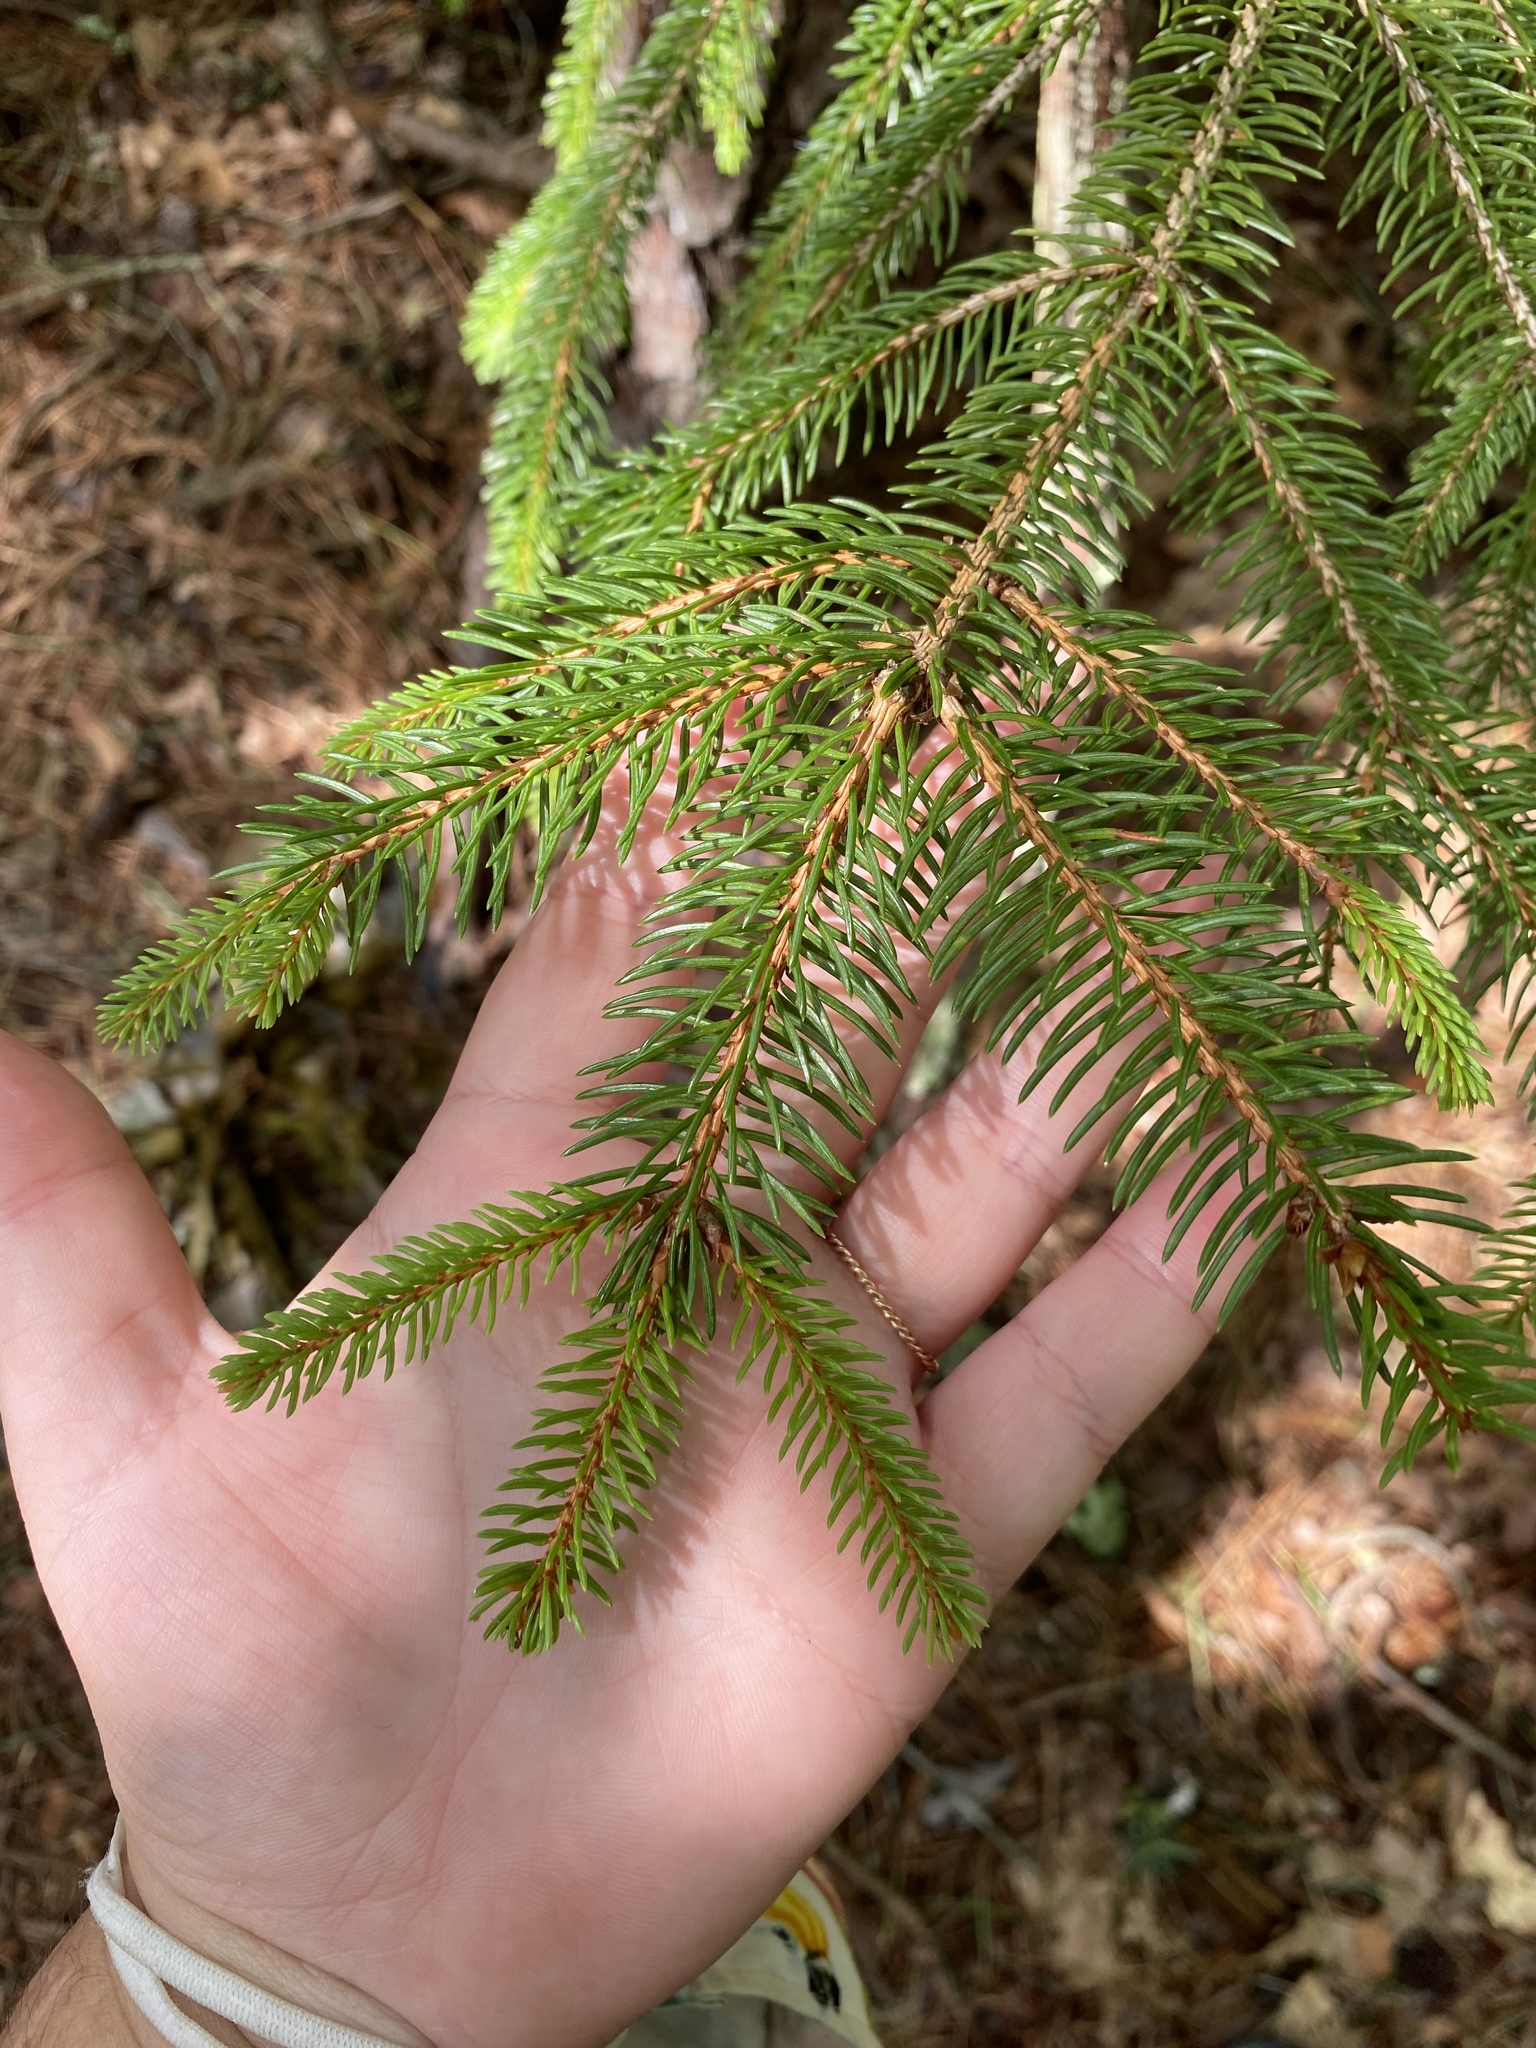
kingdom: Plantae
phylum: Tracheophyta
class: Pinopsida
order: Pinales
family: Pinaceae
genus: Picea
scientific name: Picea abies
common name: Norway spruce
